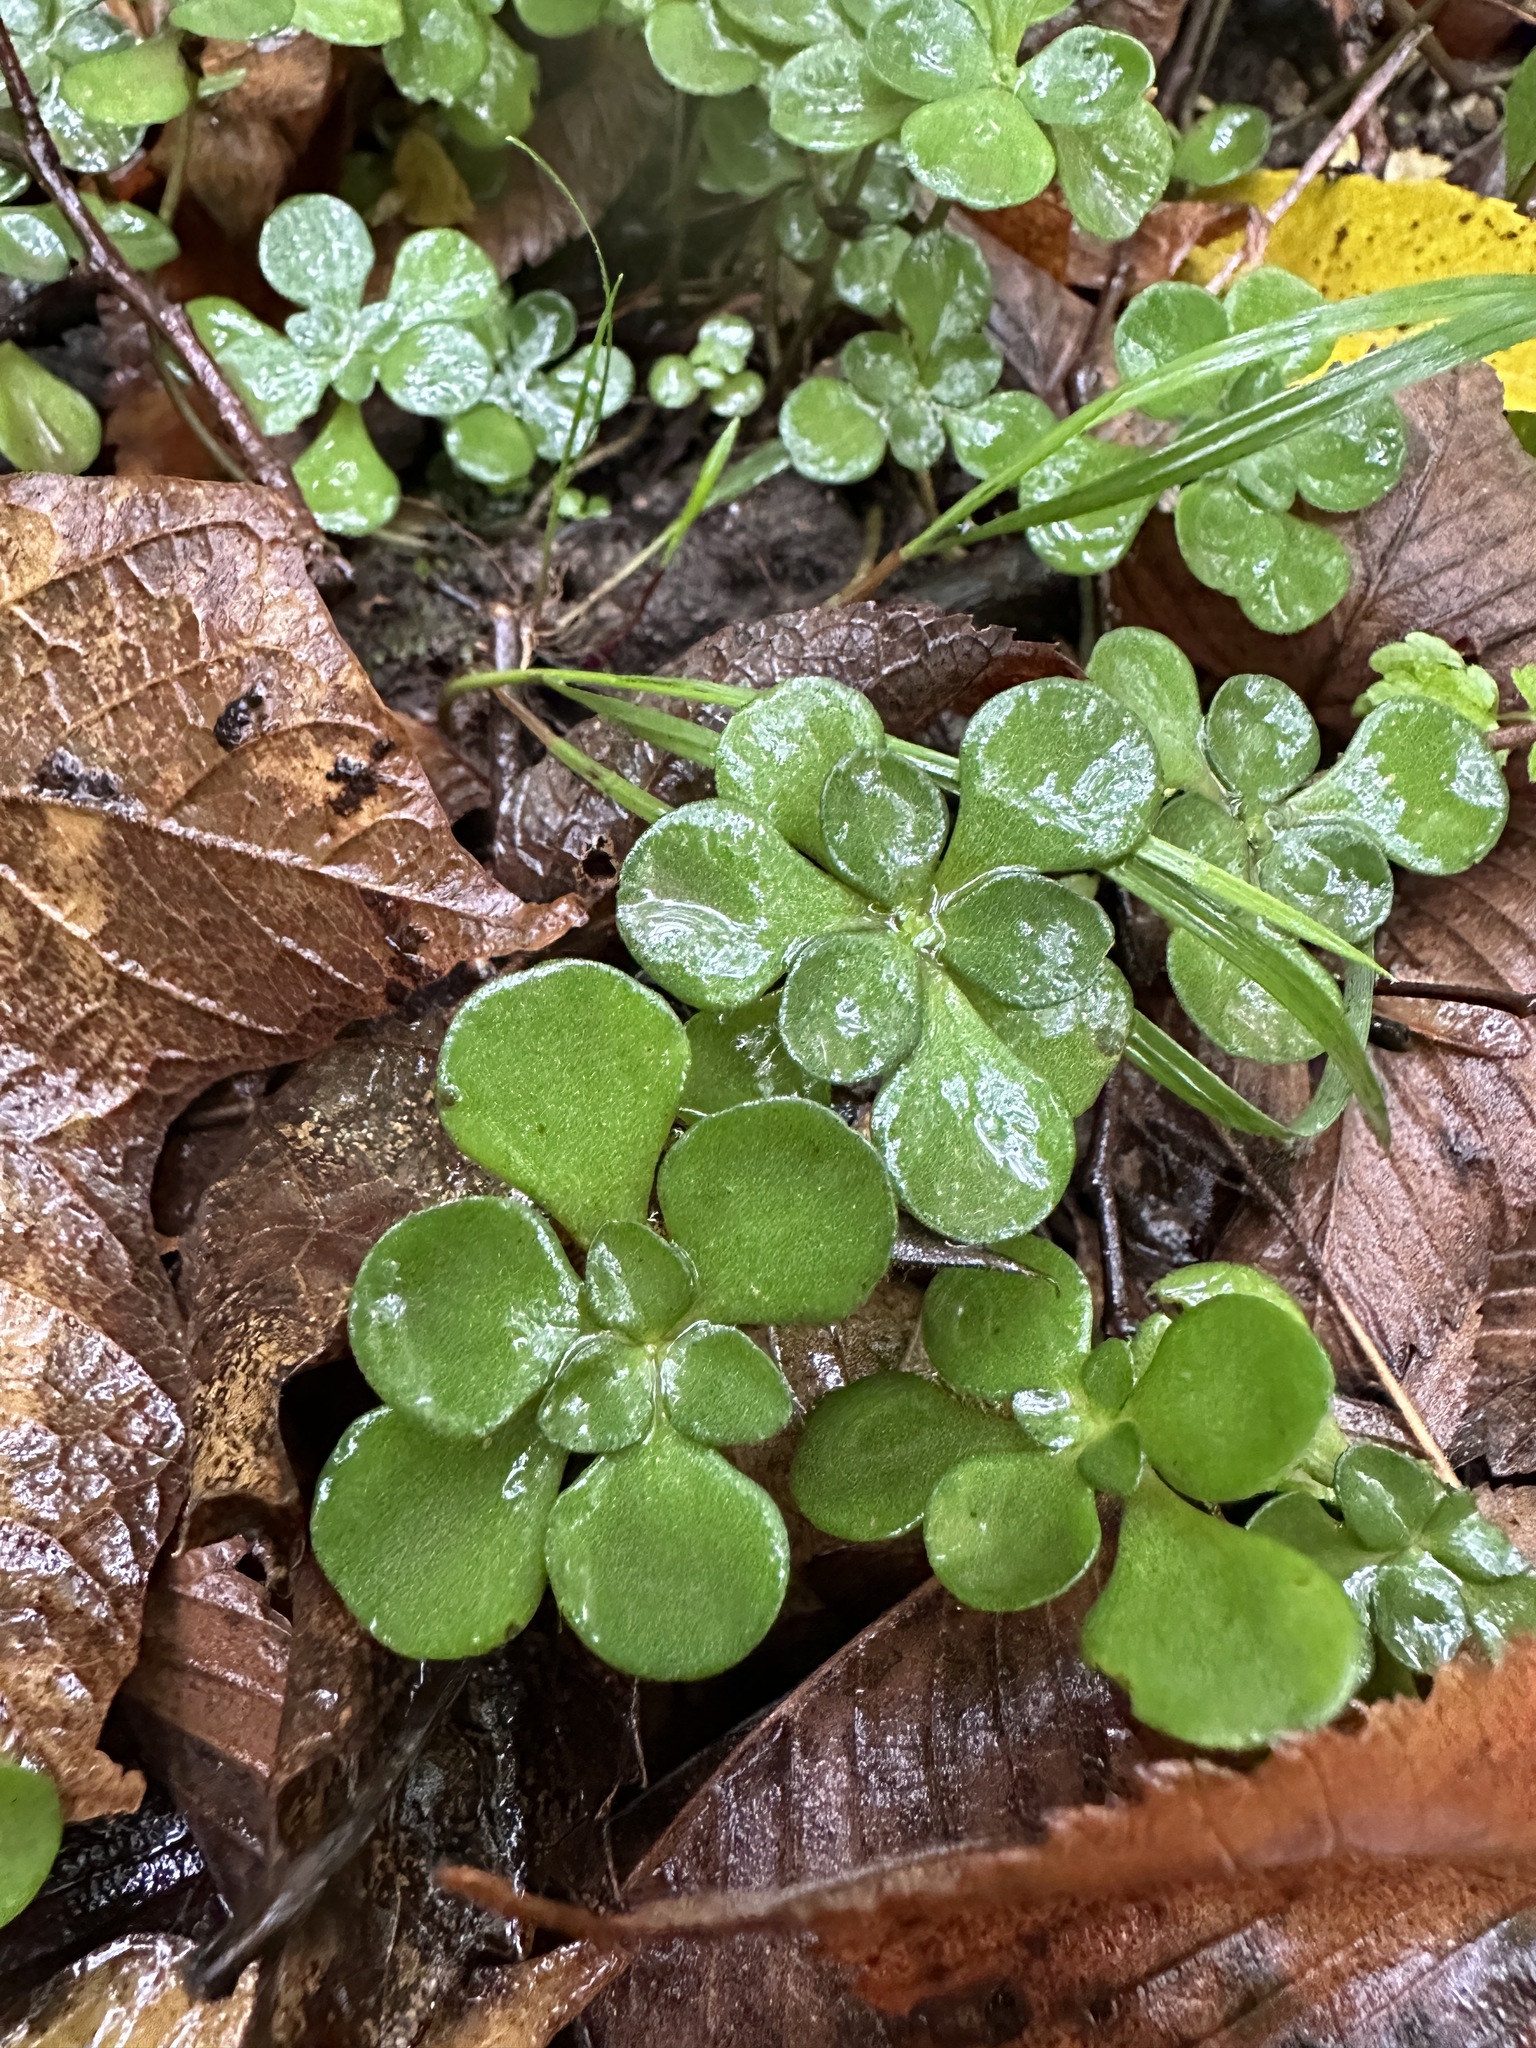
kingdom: Plantae
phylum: Tracheophyta
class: Magnoliopsida
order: Saxifragales
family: Crassulaceae
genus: Sedum
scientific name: Sedum ternatum
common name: Wild stonecrop
